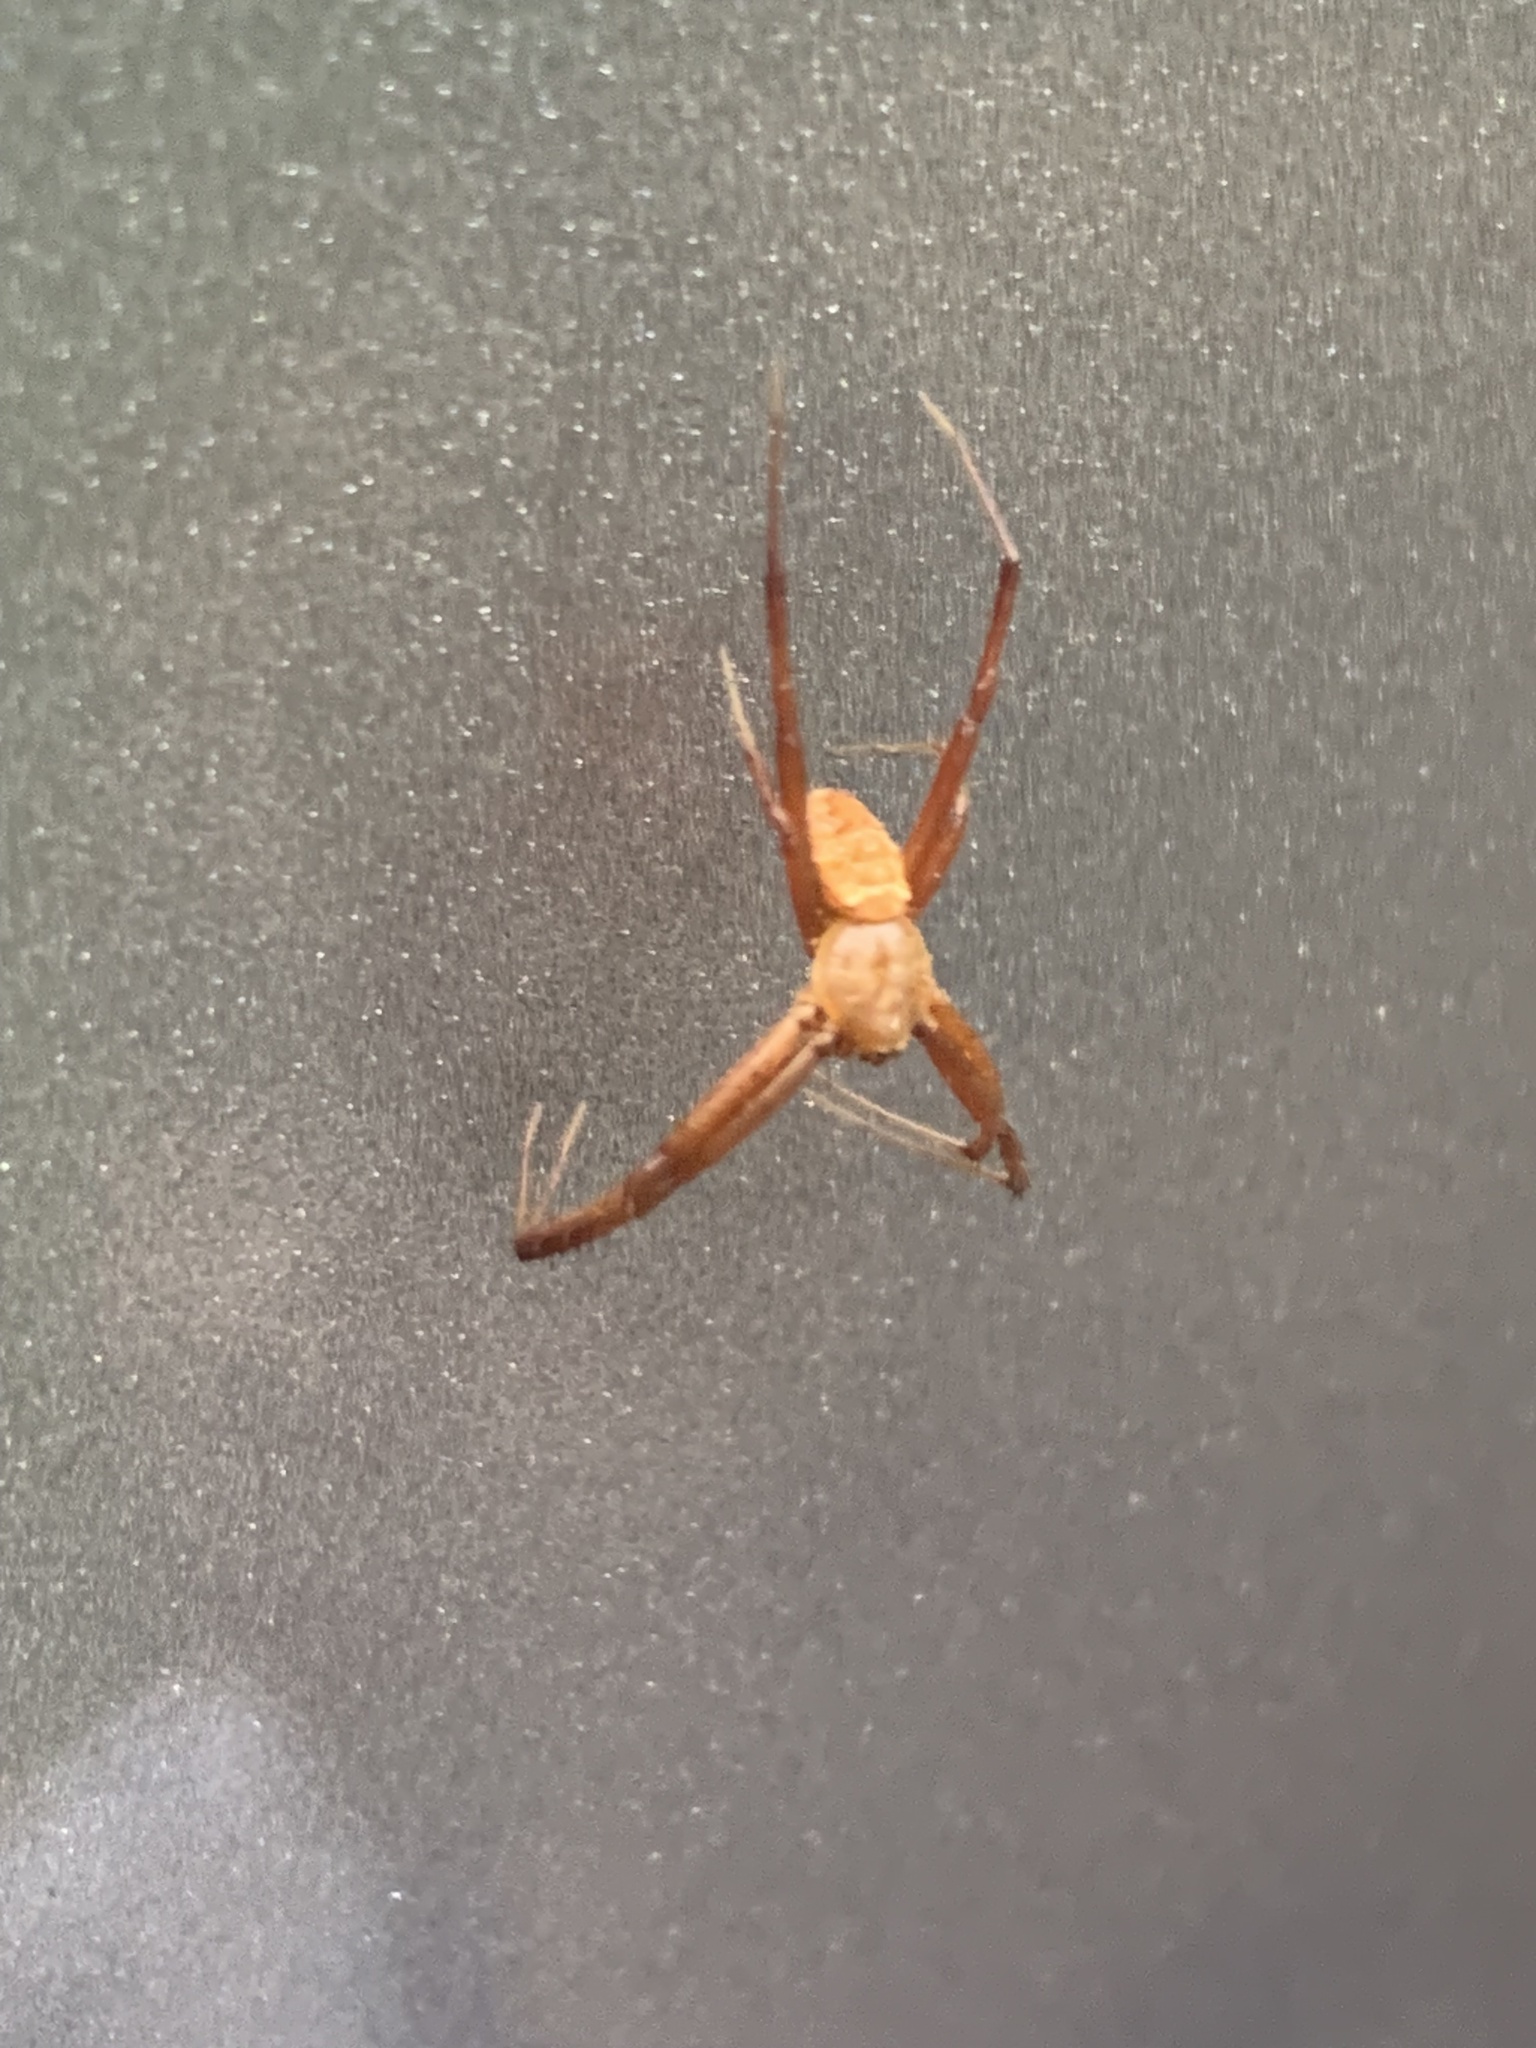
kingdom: Animalia
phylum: Arthropoda
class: Arachnida
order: Araneae
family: Araneidae
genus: Gea
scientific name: Gea heptagon
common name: Orb weavers
